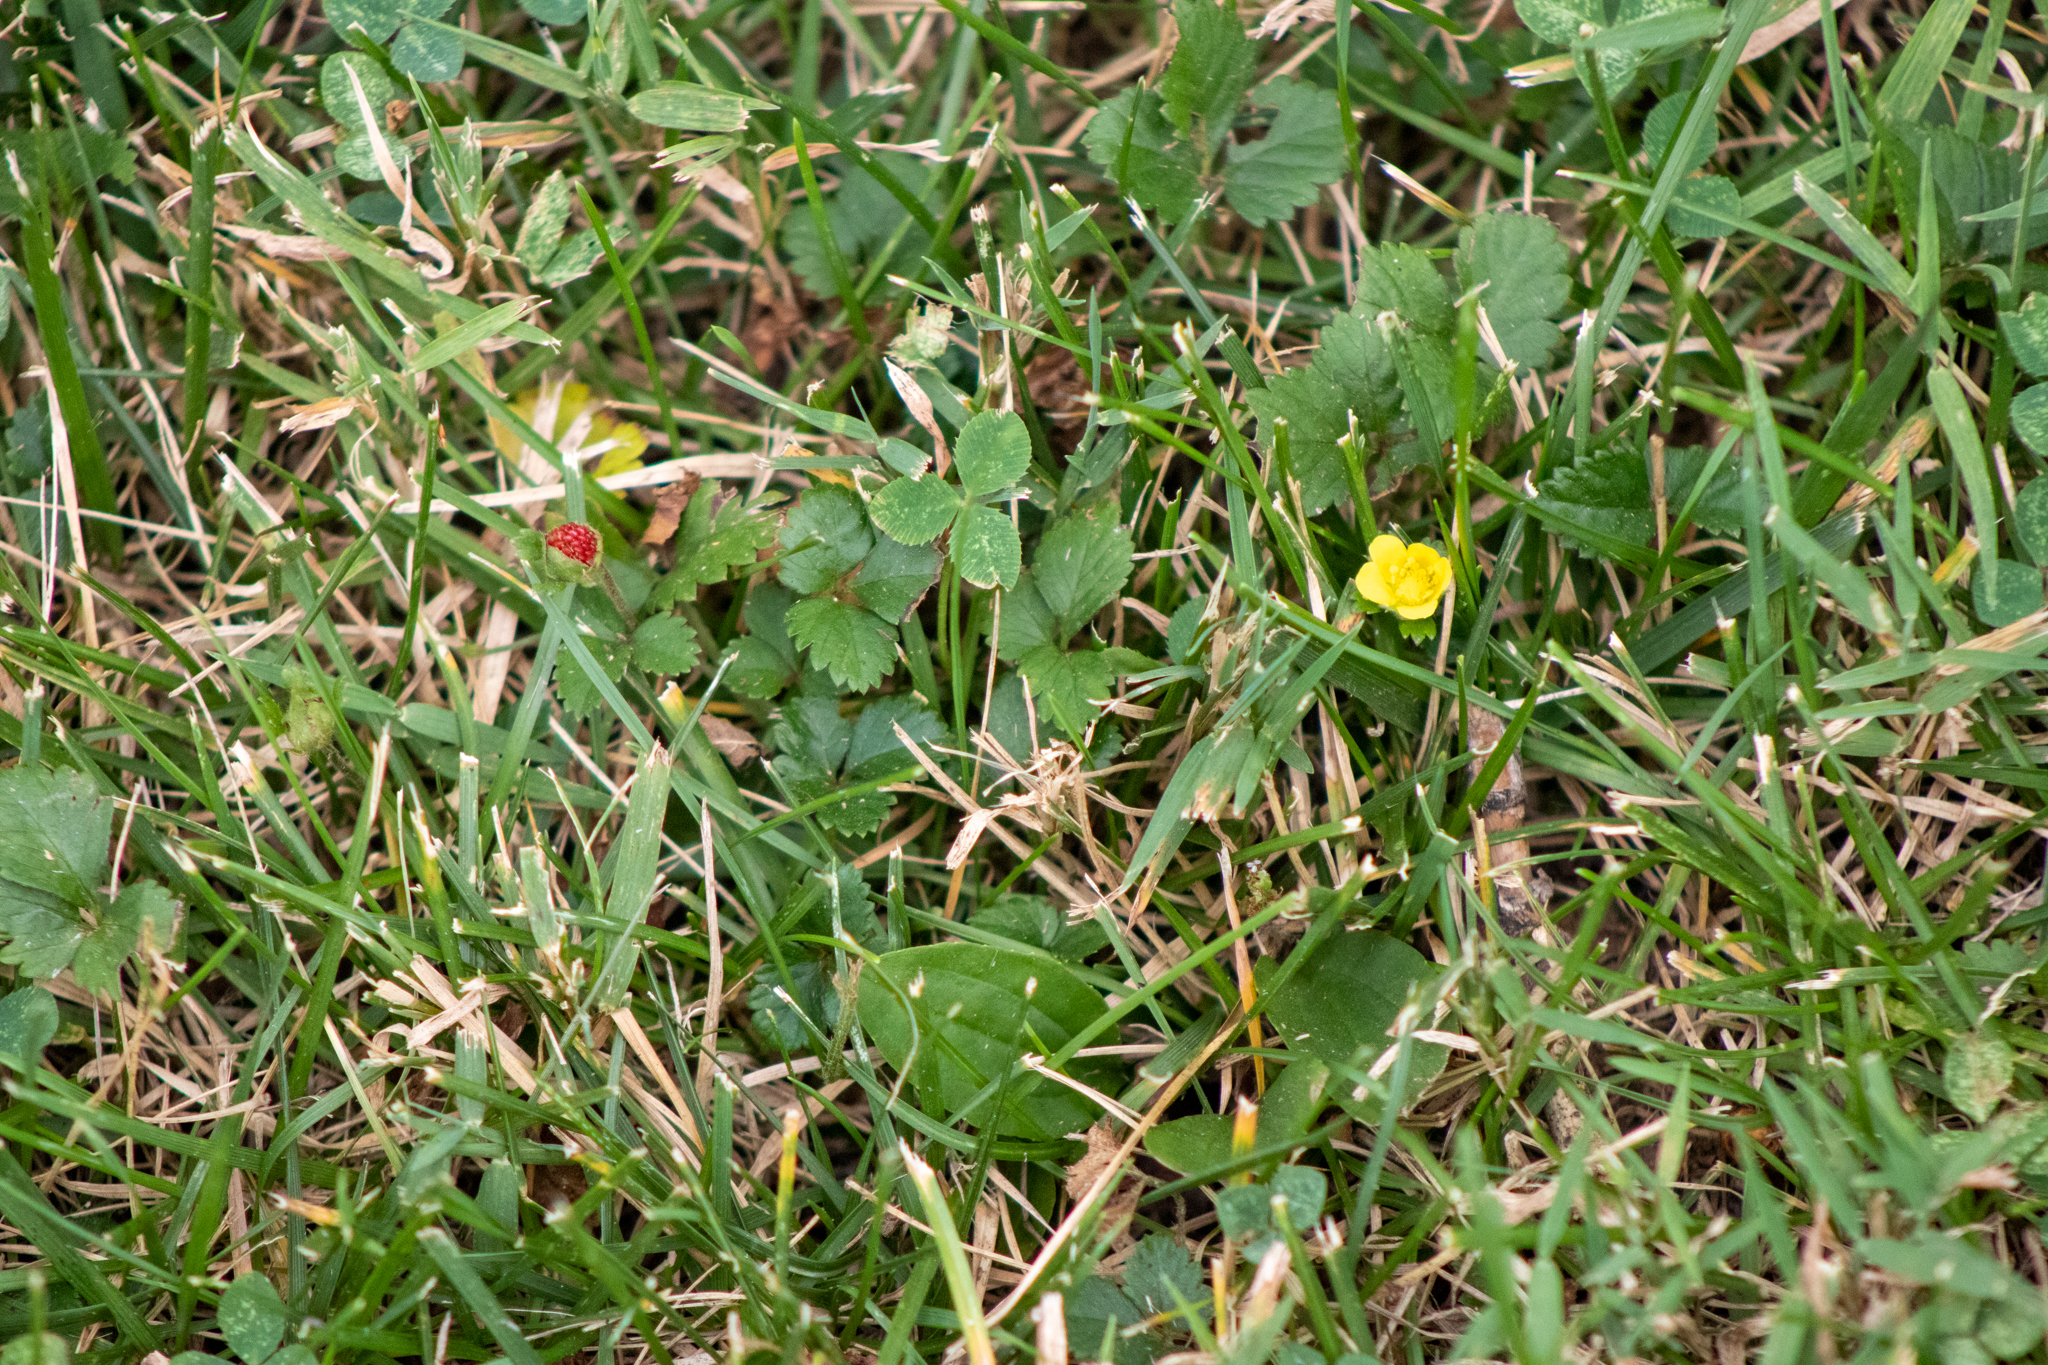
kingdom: Plantae
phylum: Tracheophyta
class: Magnoliopsida
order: Rosales
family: Rosaceae
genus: Potentilla
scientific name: Potentilla indica
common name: Yellow-flowered strawberry
